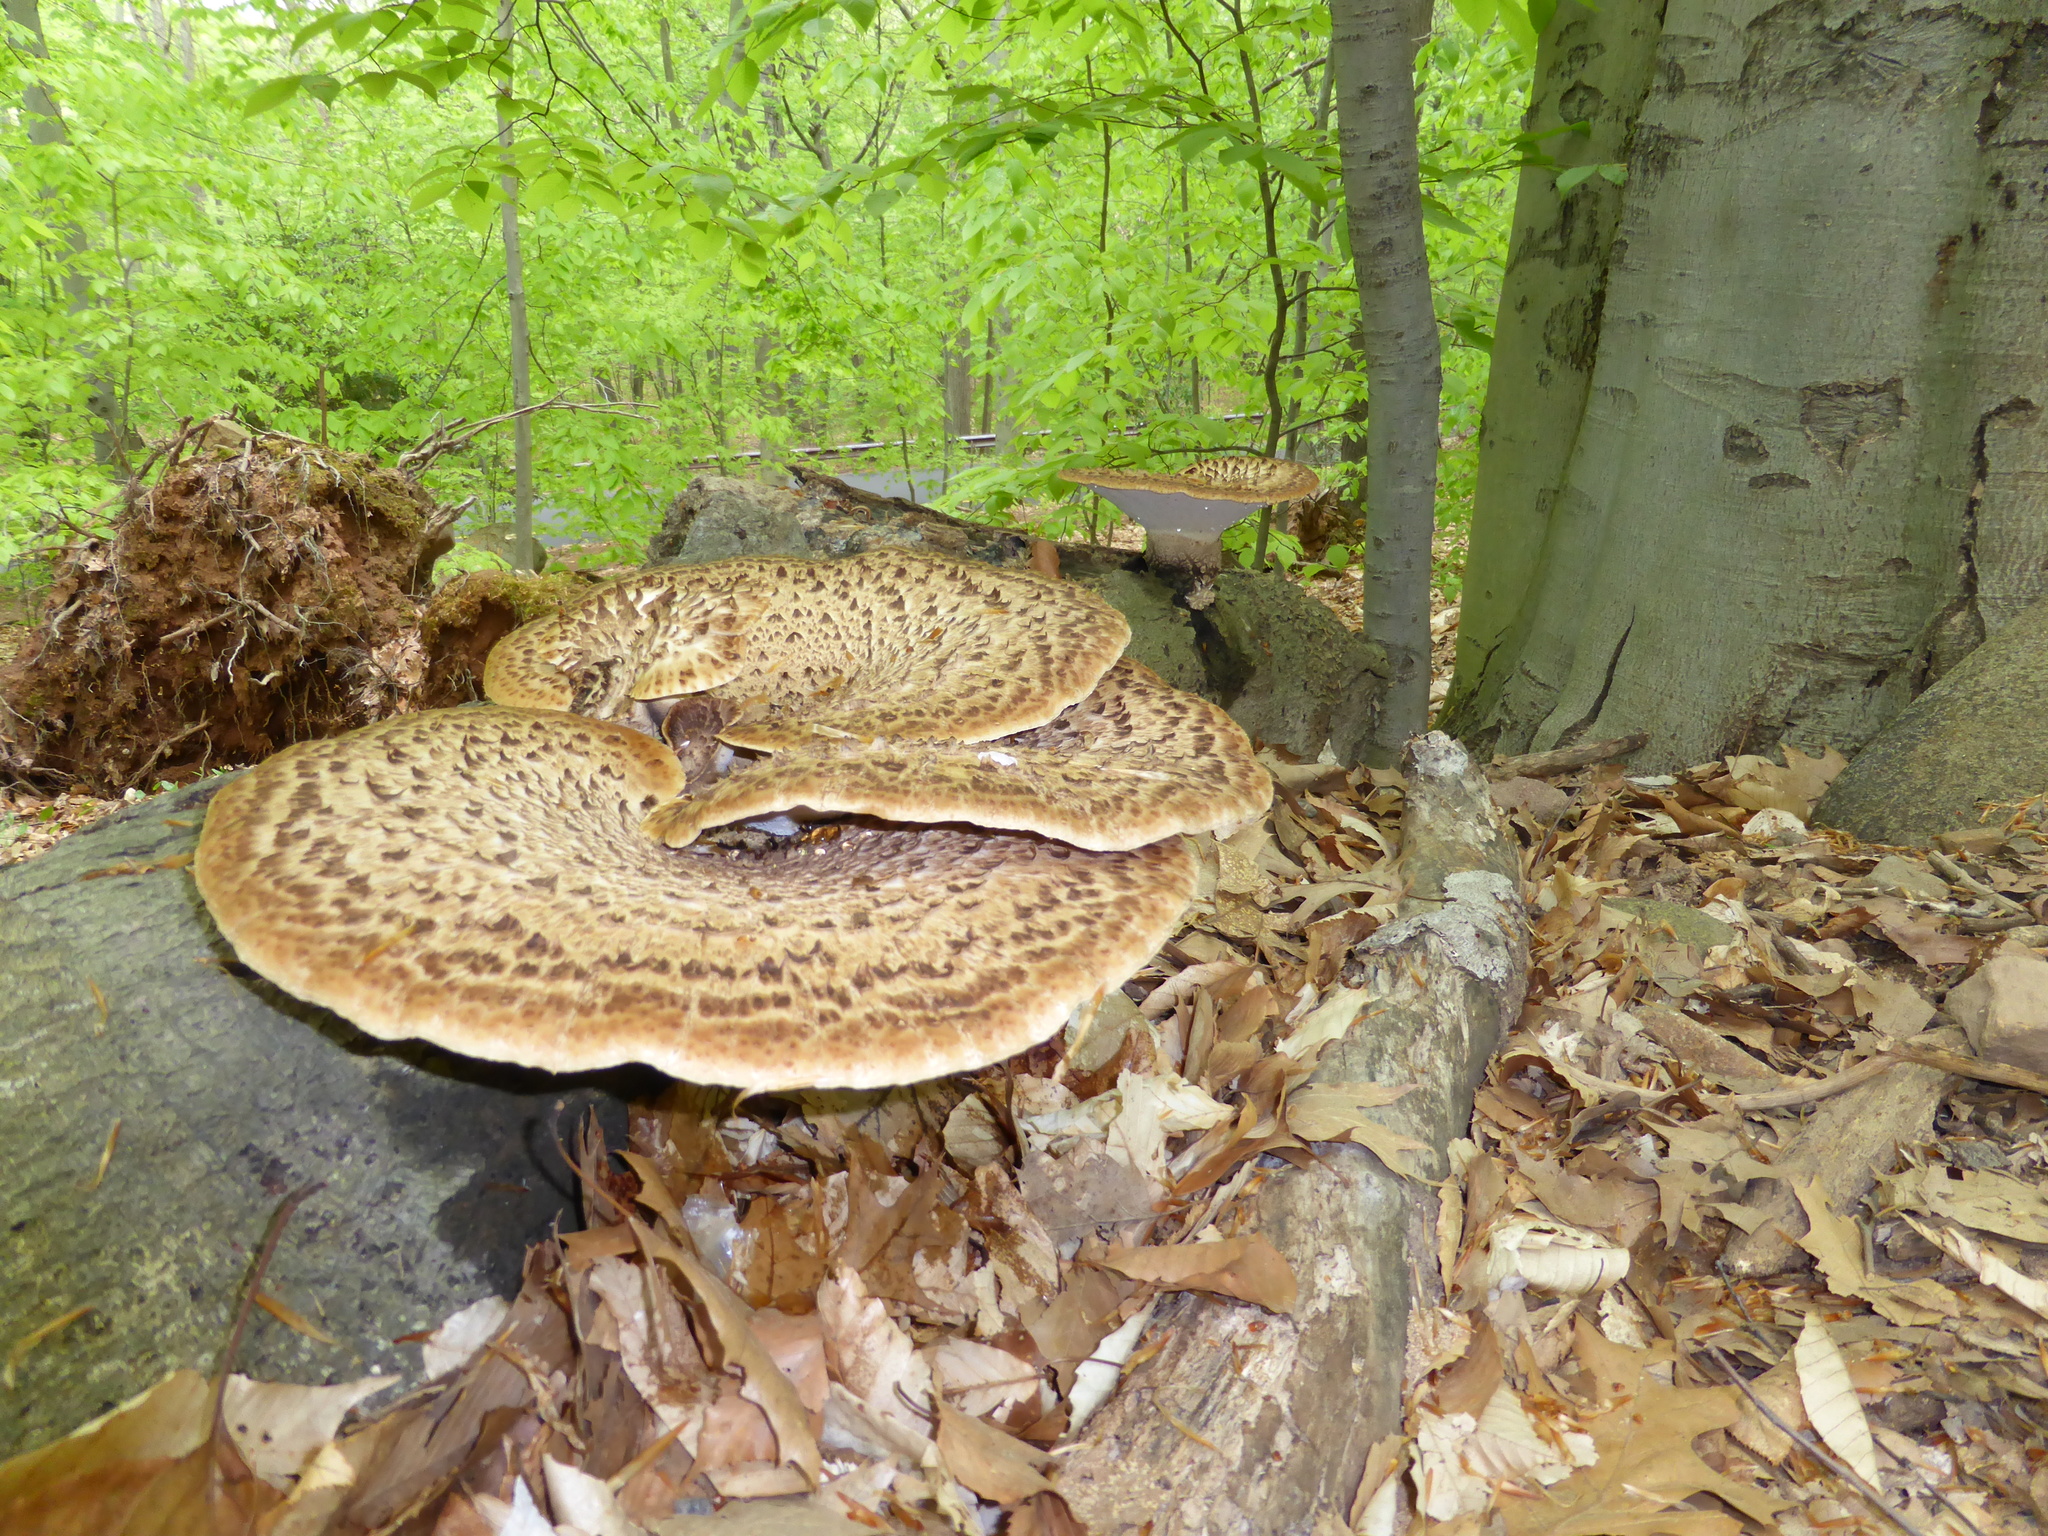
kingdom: Fungi
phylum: Basidiomycota
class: Agaricomycetes
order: Polyporales
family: Polyporaceae
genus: Cerioporus
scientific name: Cerioporus squamosus
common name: Dryad's saddle
